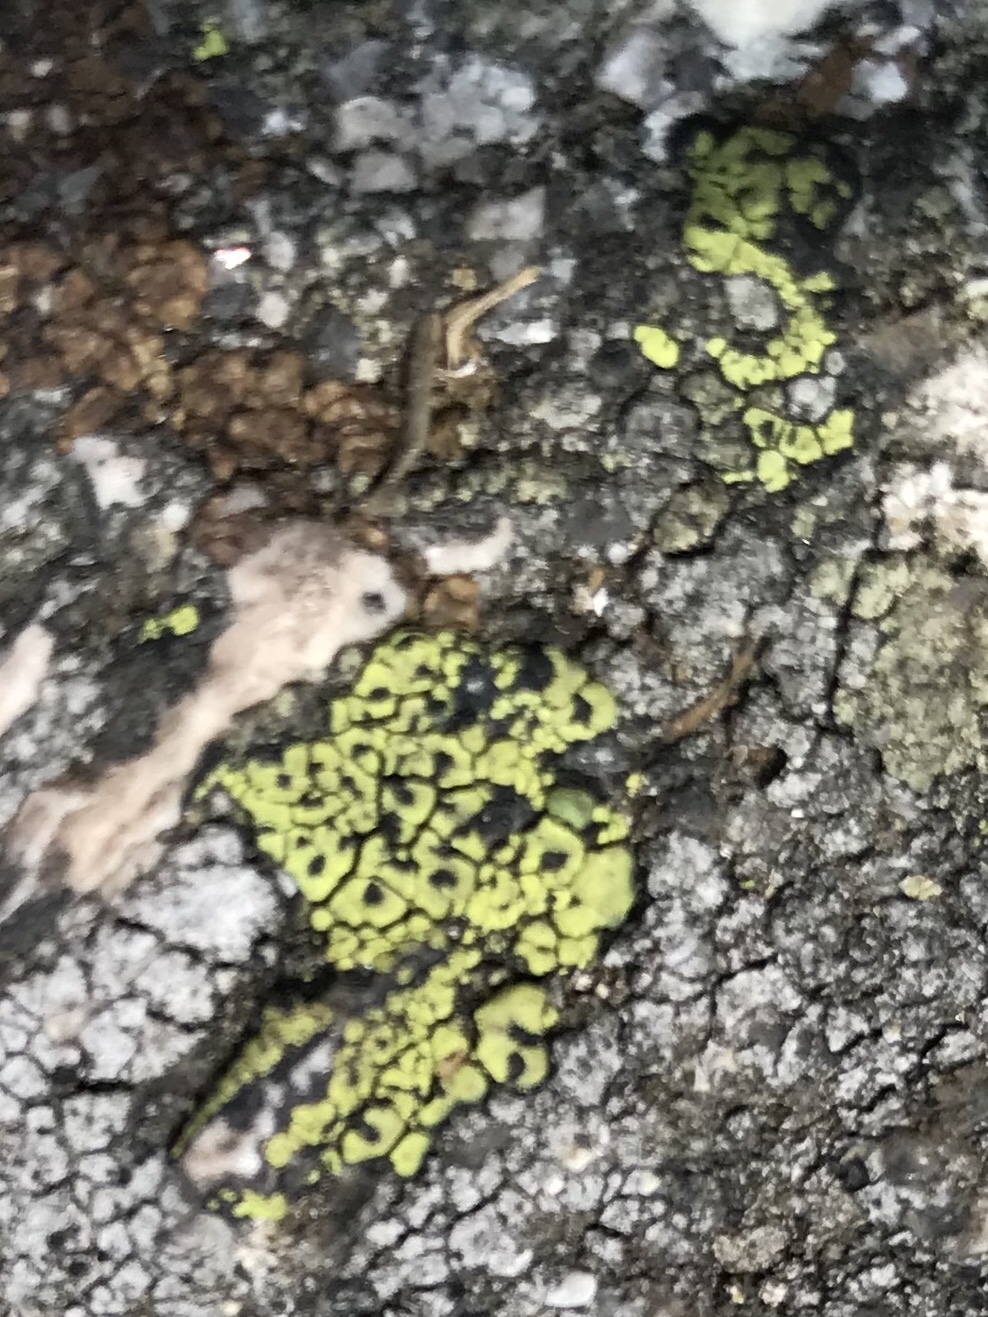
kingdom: Fungi
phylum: Ascomycota
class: Lecanoromycetes
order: Rhizocarpales
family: Rhizocarpaceae
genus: Rhizocarpon
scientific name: Rhizocarpon geographicum
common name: Yellow map lichen
